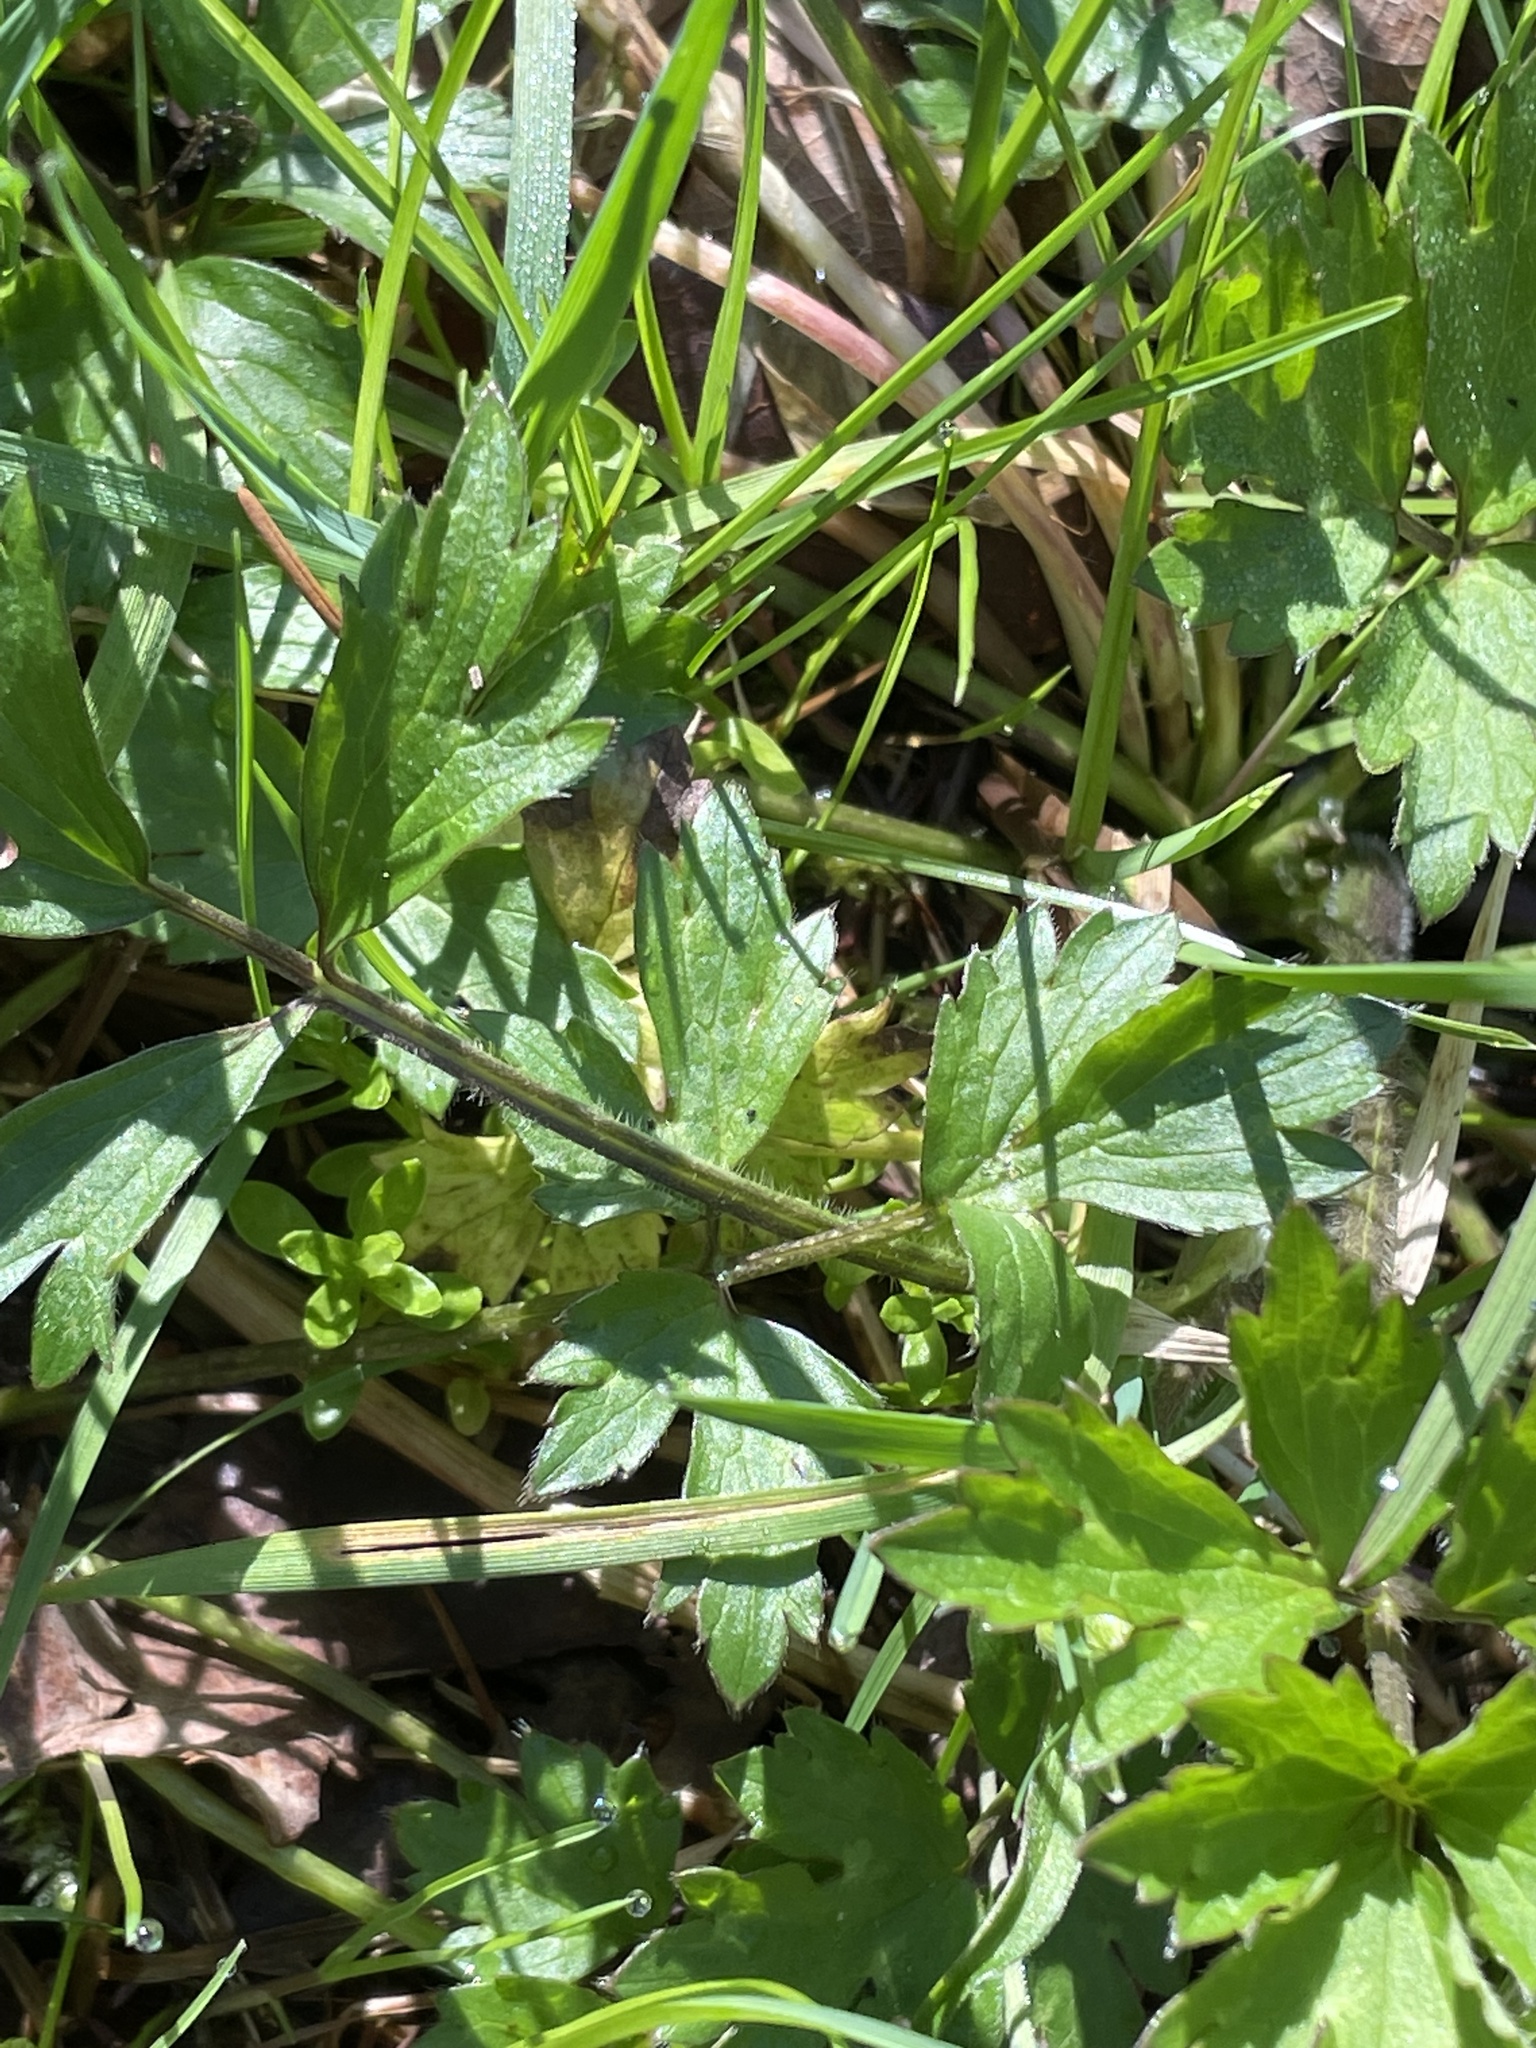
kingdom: Plantae
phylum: Tracheophyta
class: Magnoliopsida
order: Ranunculales
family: Ranunculaceae
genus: Ranunculus
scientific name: Ranunculus repens
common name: Creeping buttercup
